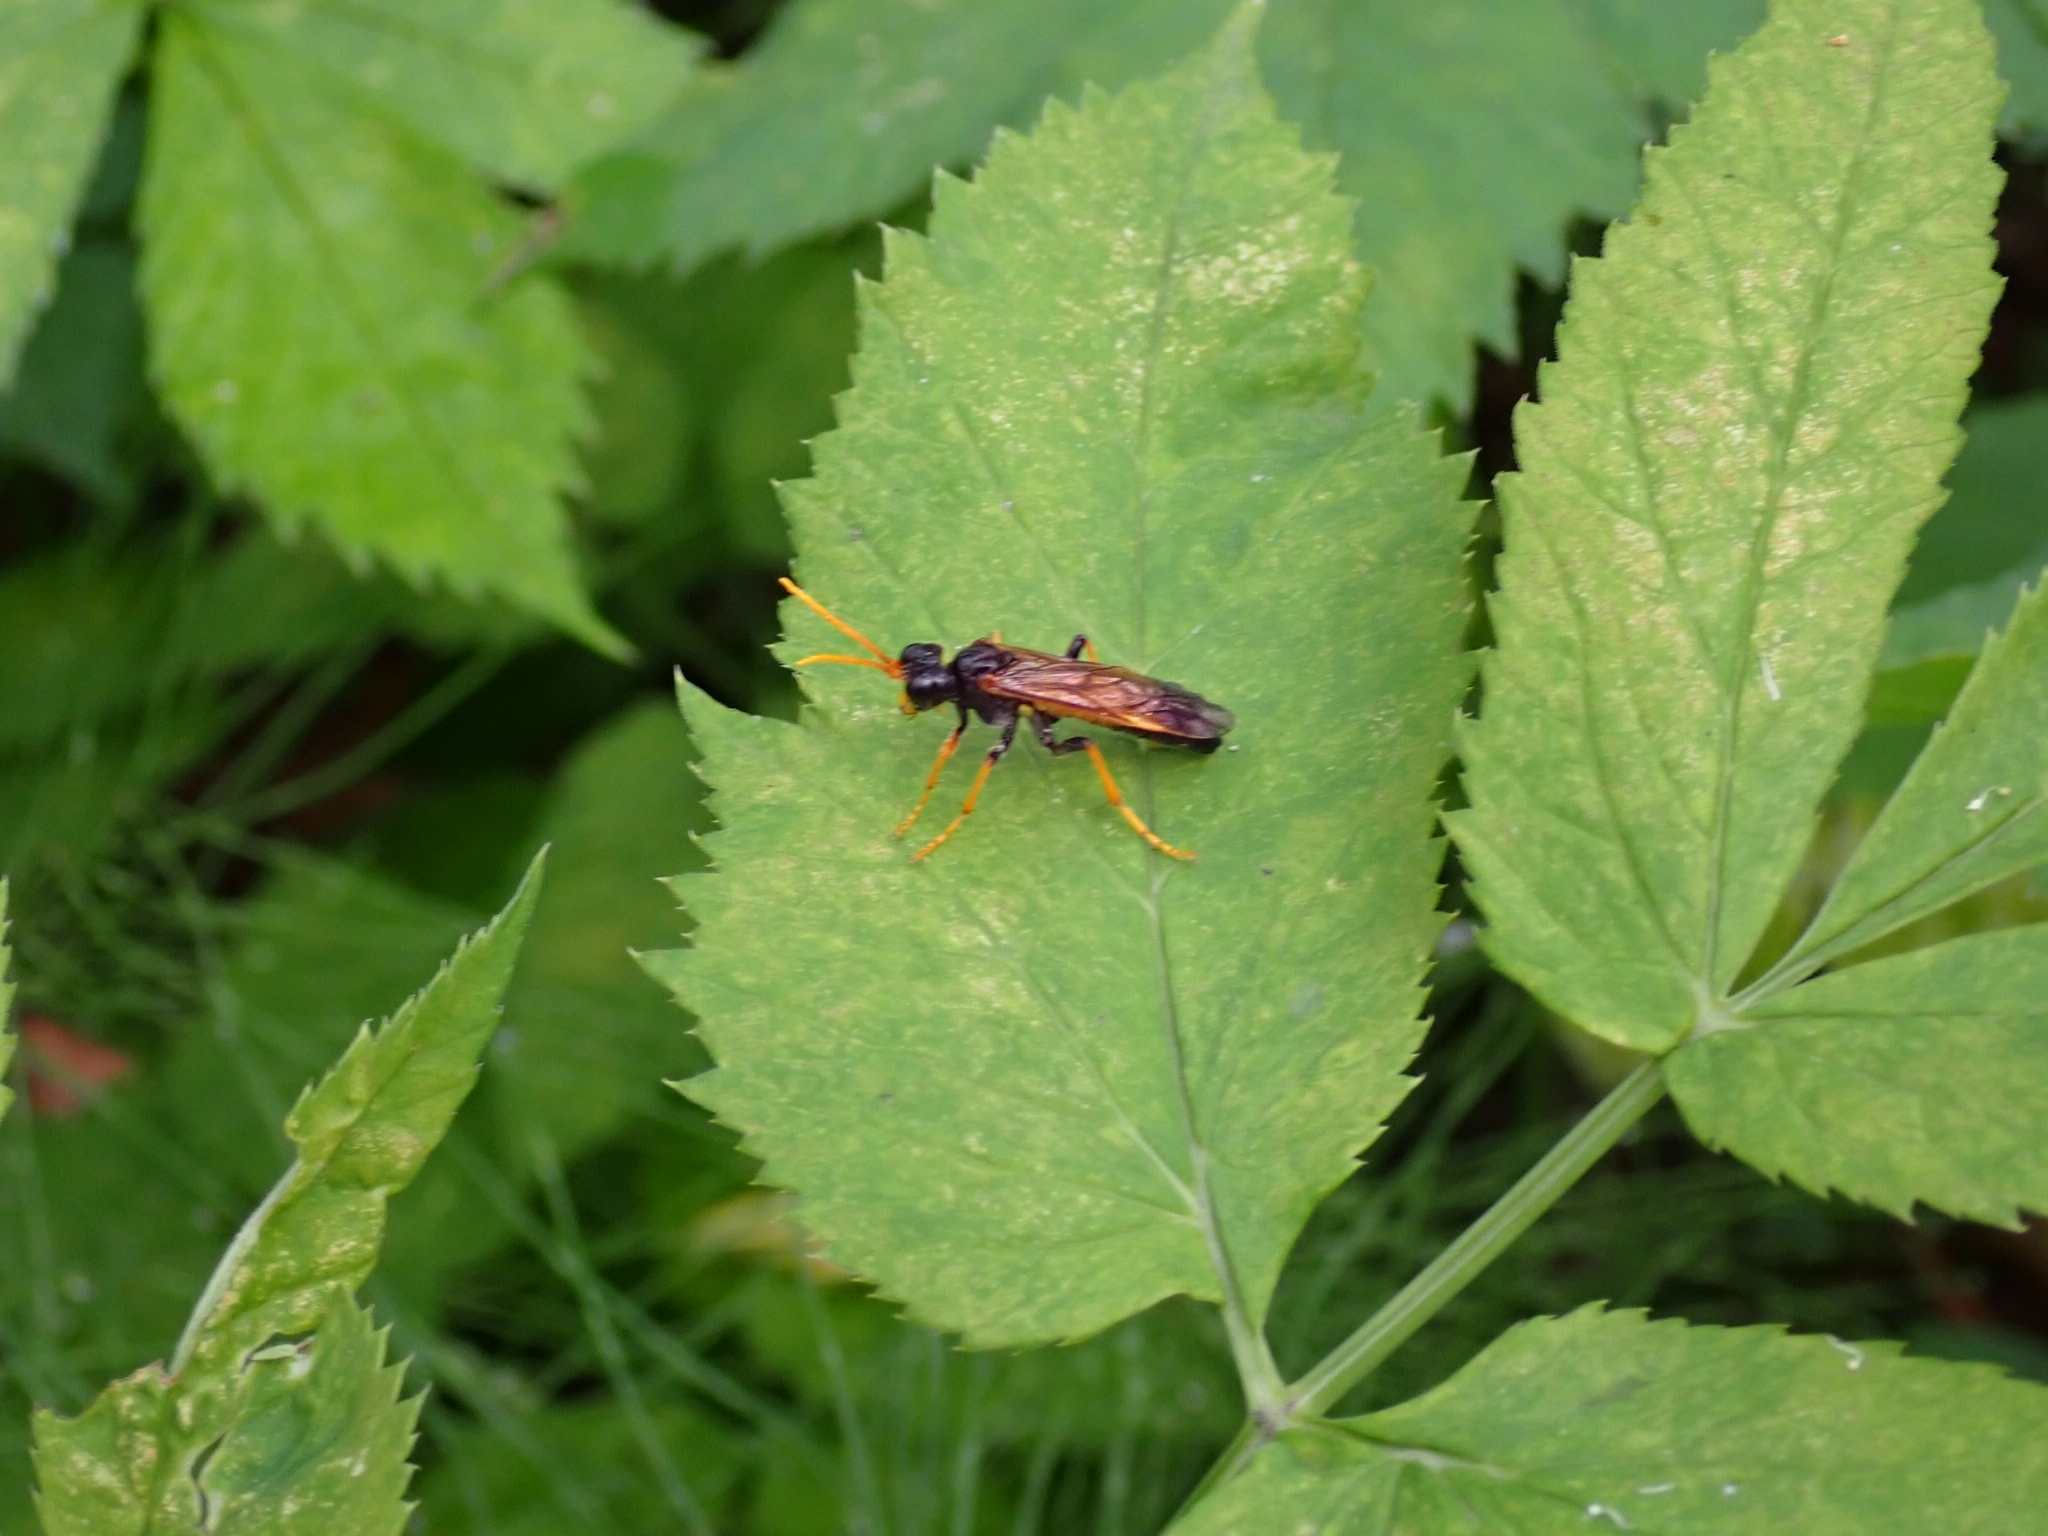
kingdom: Animalia
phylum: Arthropoda
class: Insecta
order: Hymenoptera
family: Tenthredinidae
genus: Tenthredo
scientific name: Tenthredo campestris
